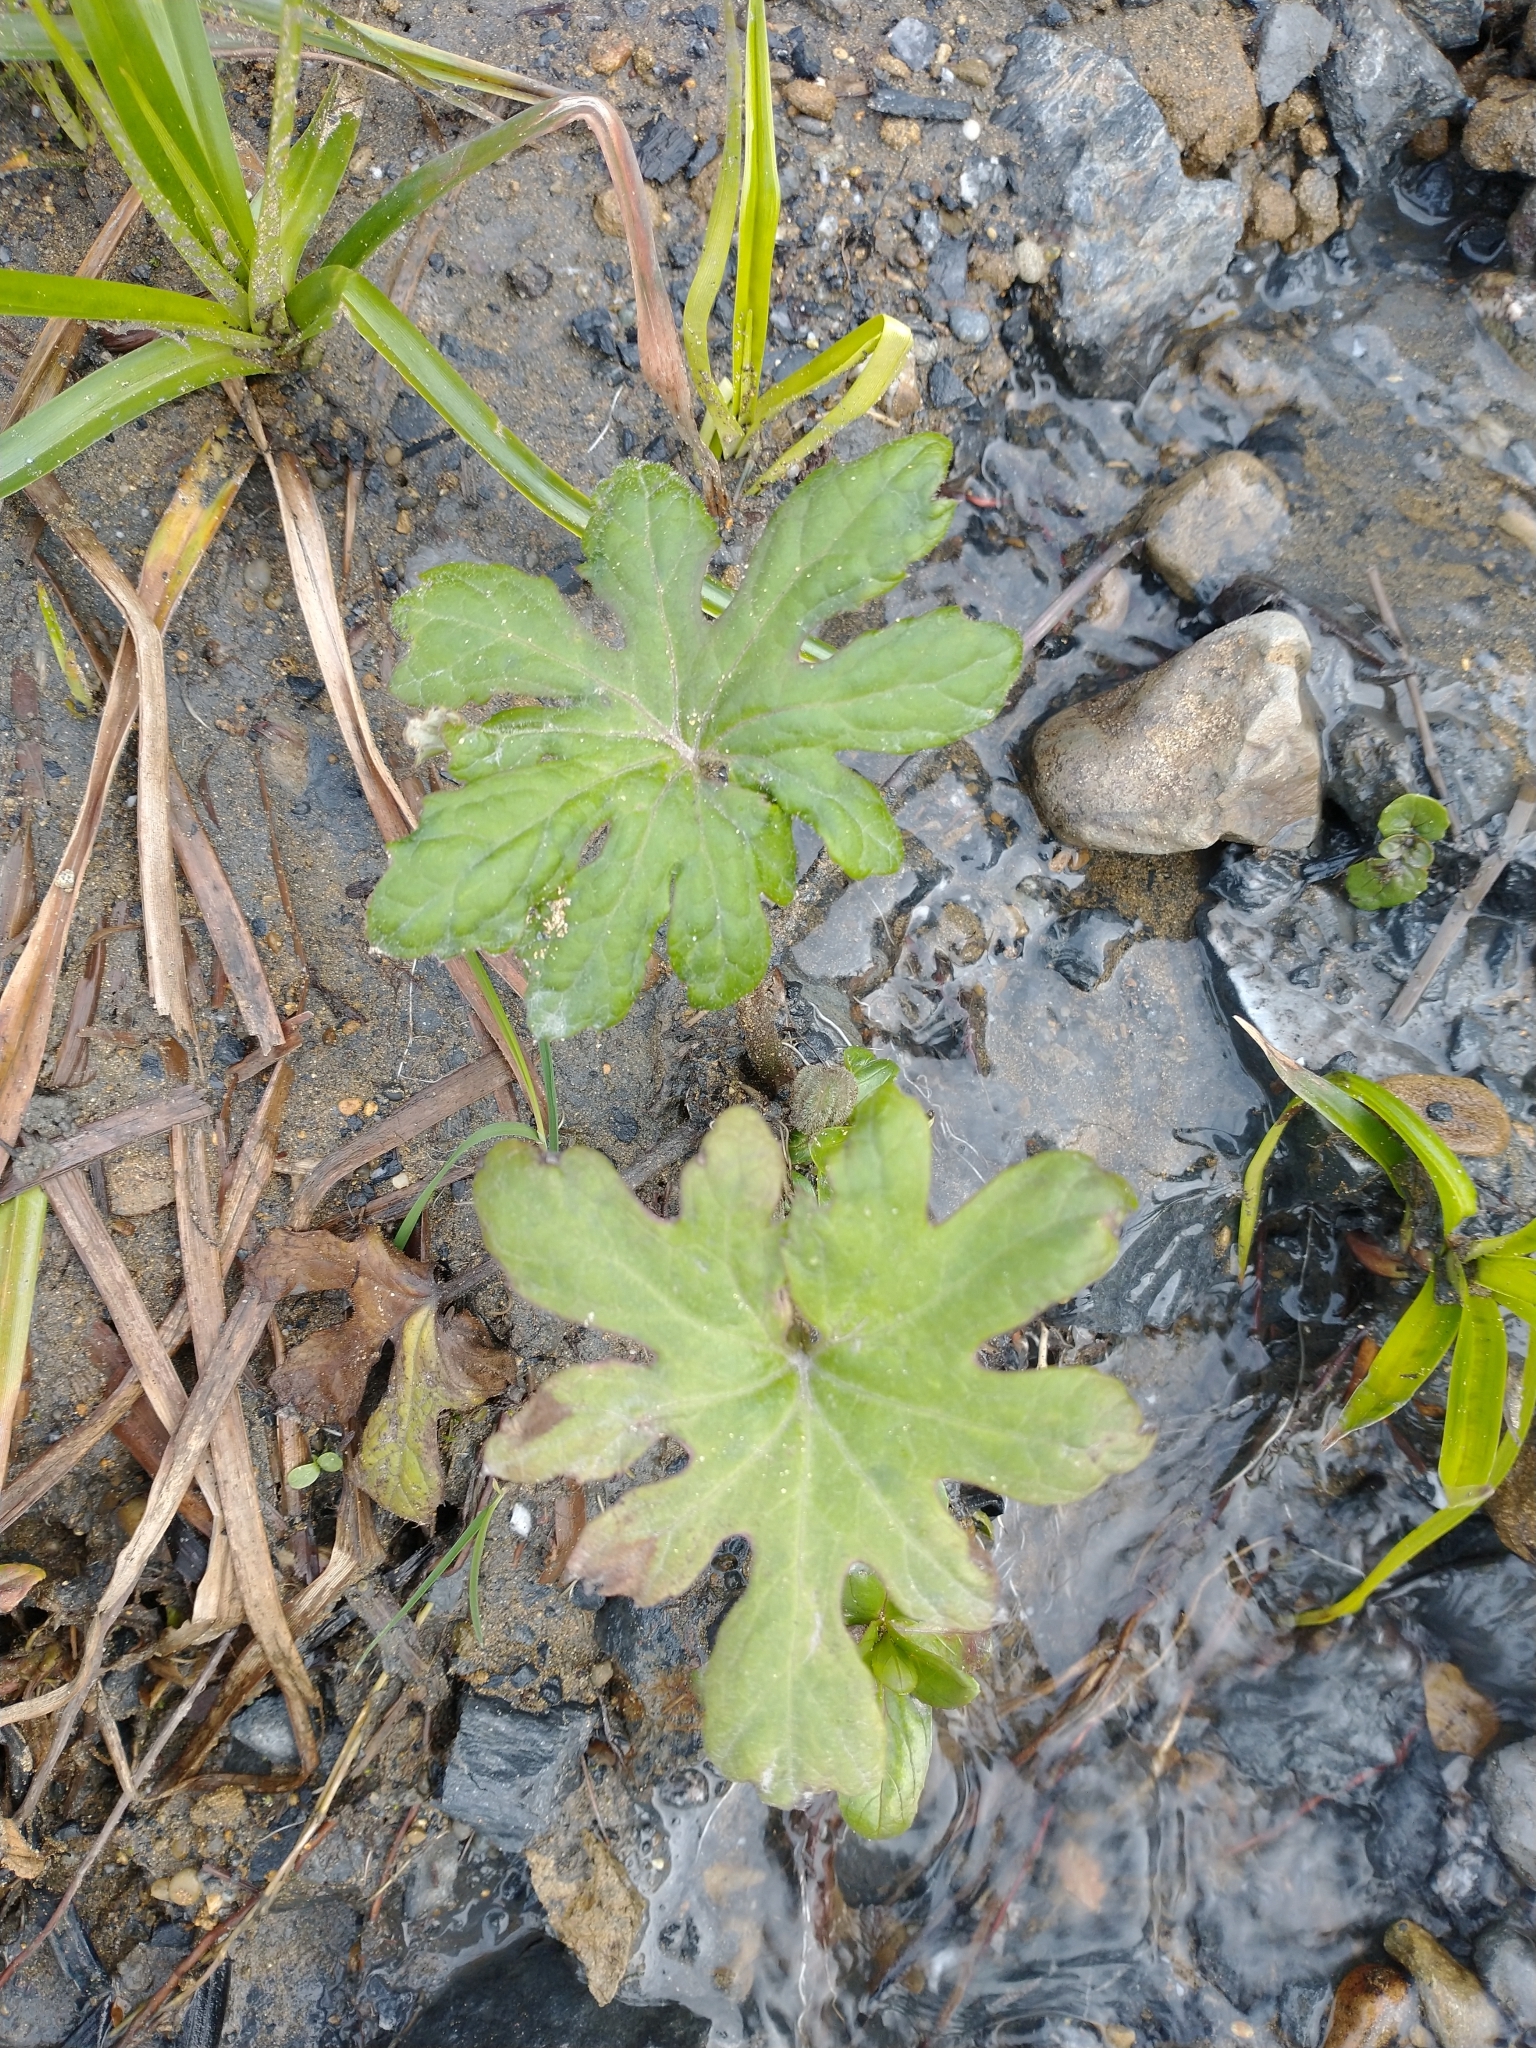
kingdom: Plantae
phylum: Tracheophyta
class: Magnoliopsida
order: Asterales
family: Asteraceae
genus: Petasites
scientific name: Petasites frigidus
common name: Arctic butterbur
